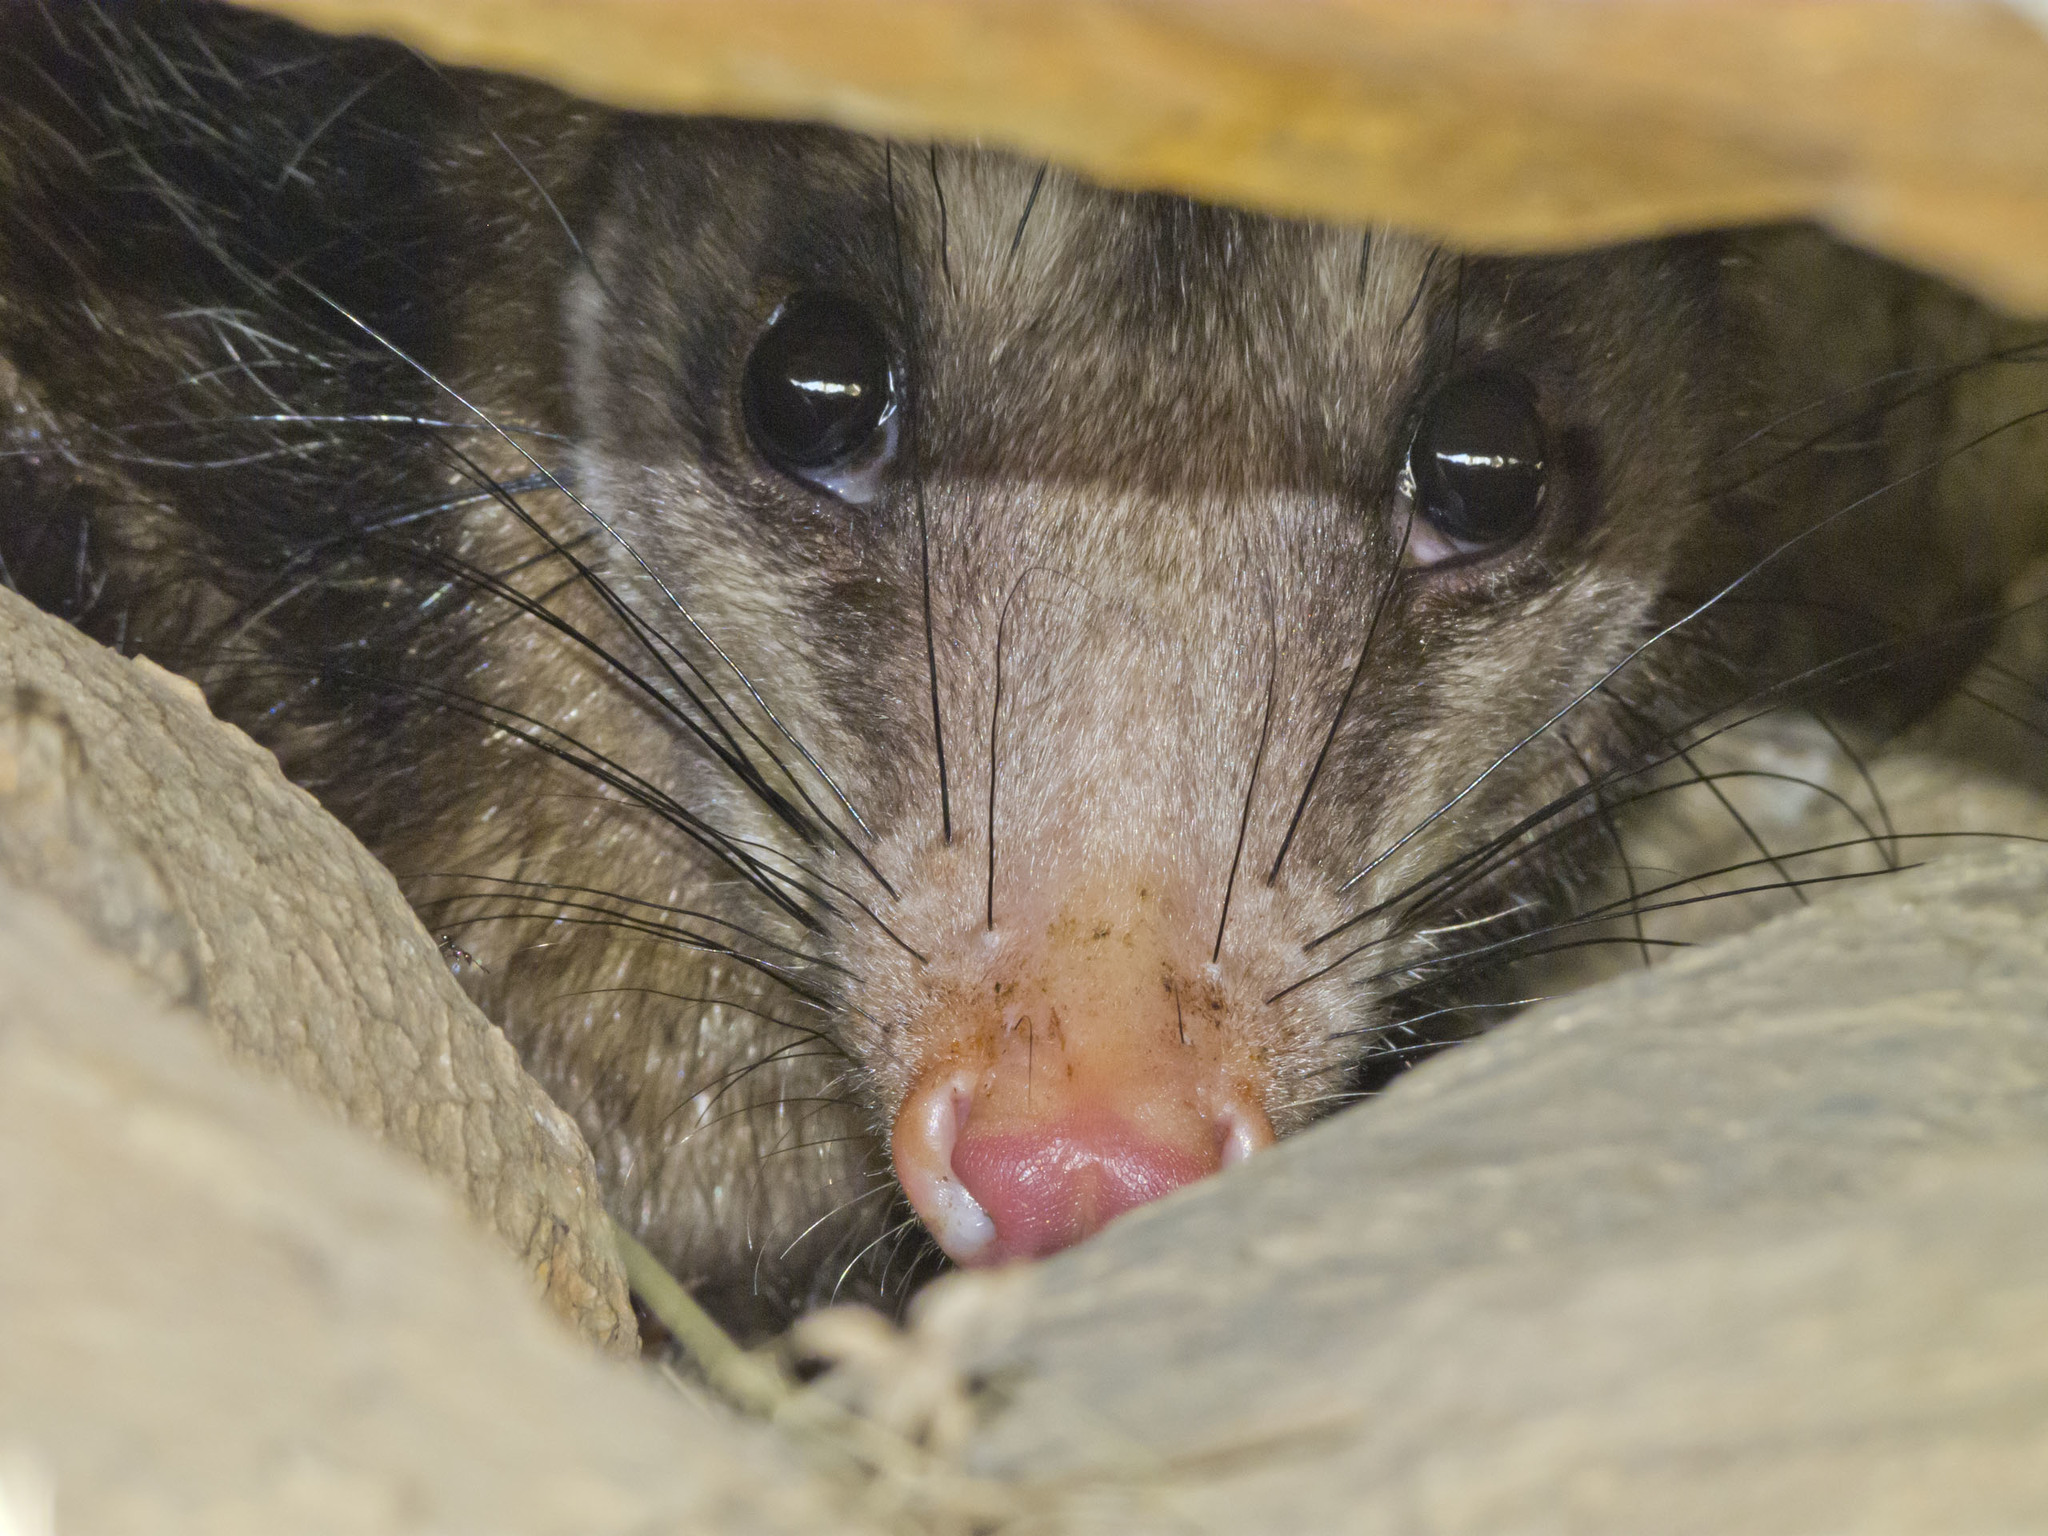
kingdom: Animalia
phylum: Chordata
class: Mammalia
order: Didelphimorphia
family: Didelphidae
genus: Didelphis
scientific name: Didelphis marsupialis
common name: Common opossum
